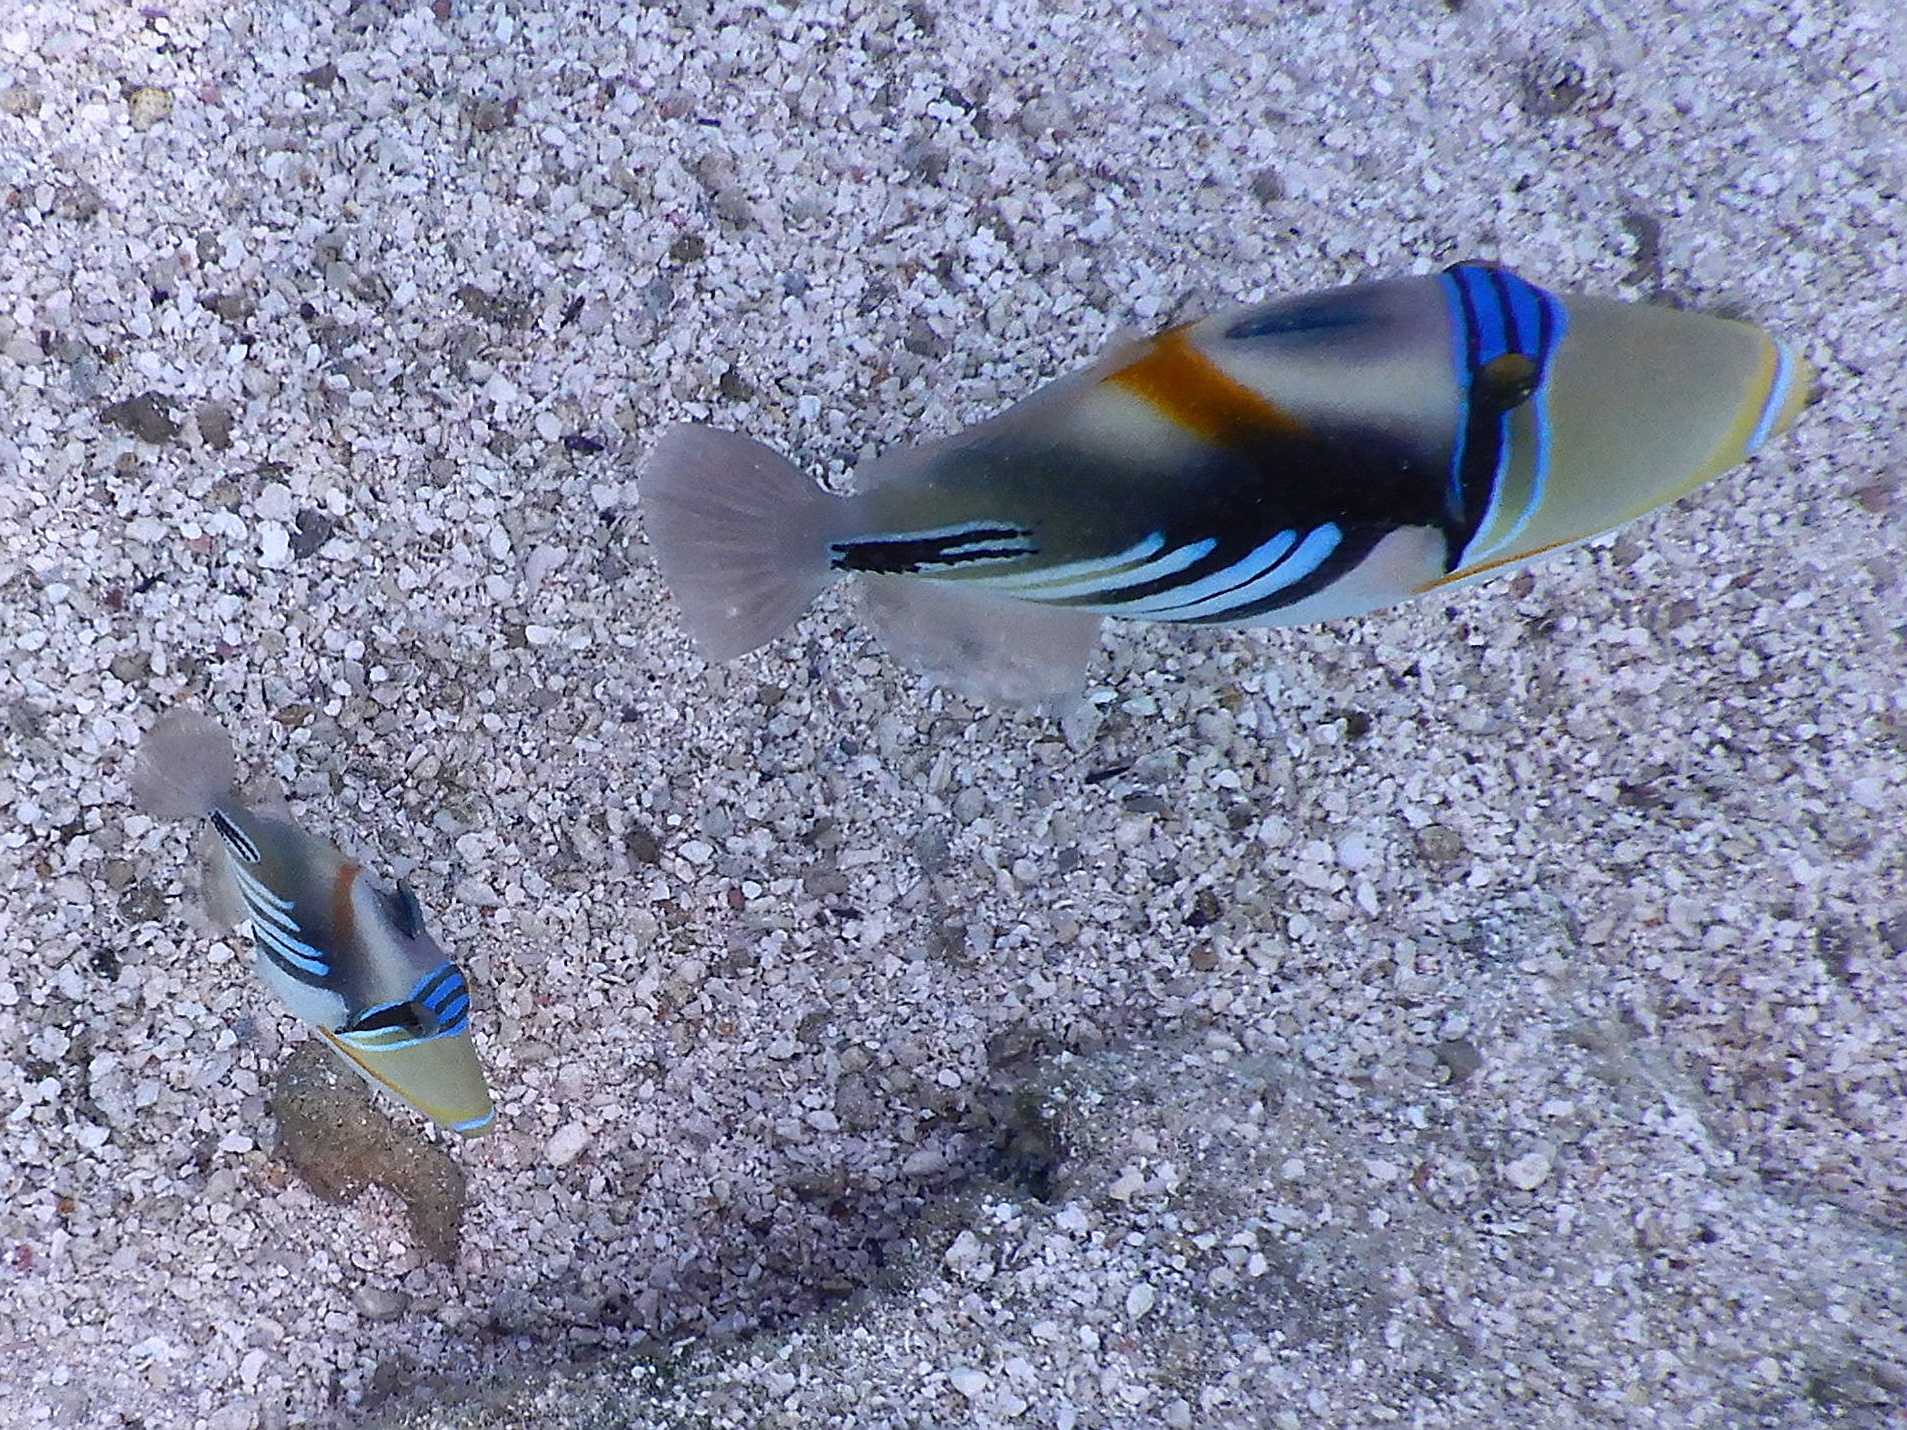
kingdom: Animalia
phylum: Chordata
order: Tetraodontiformes
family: Balistidae
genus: Rhinecanthus
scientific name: Rhinecanthus aculeatus
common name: White-banded triggerfish
